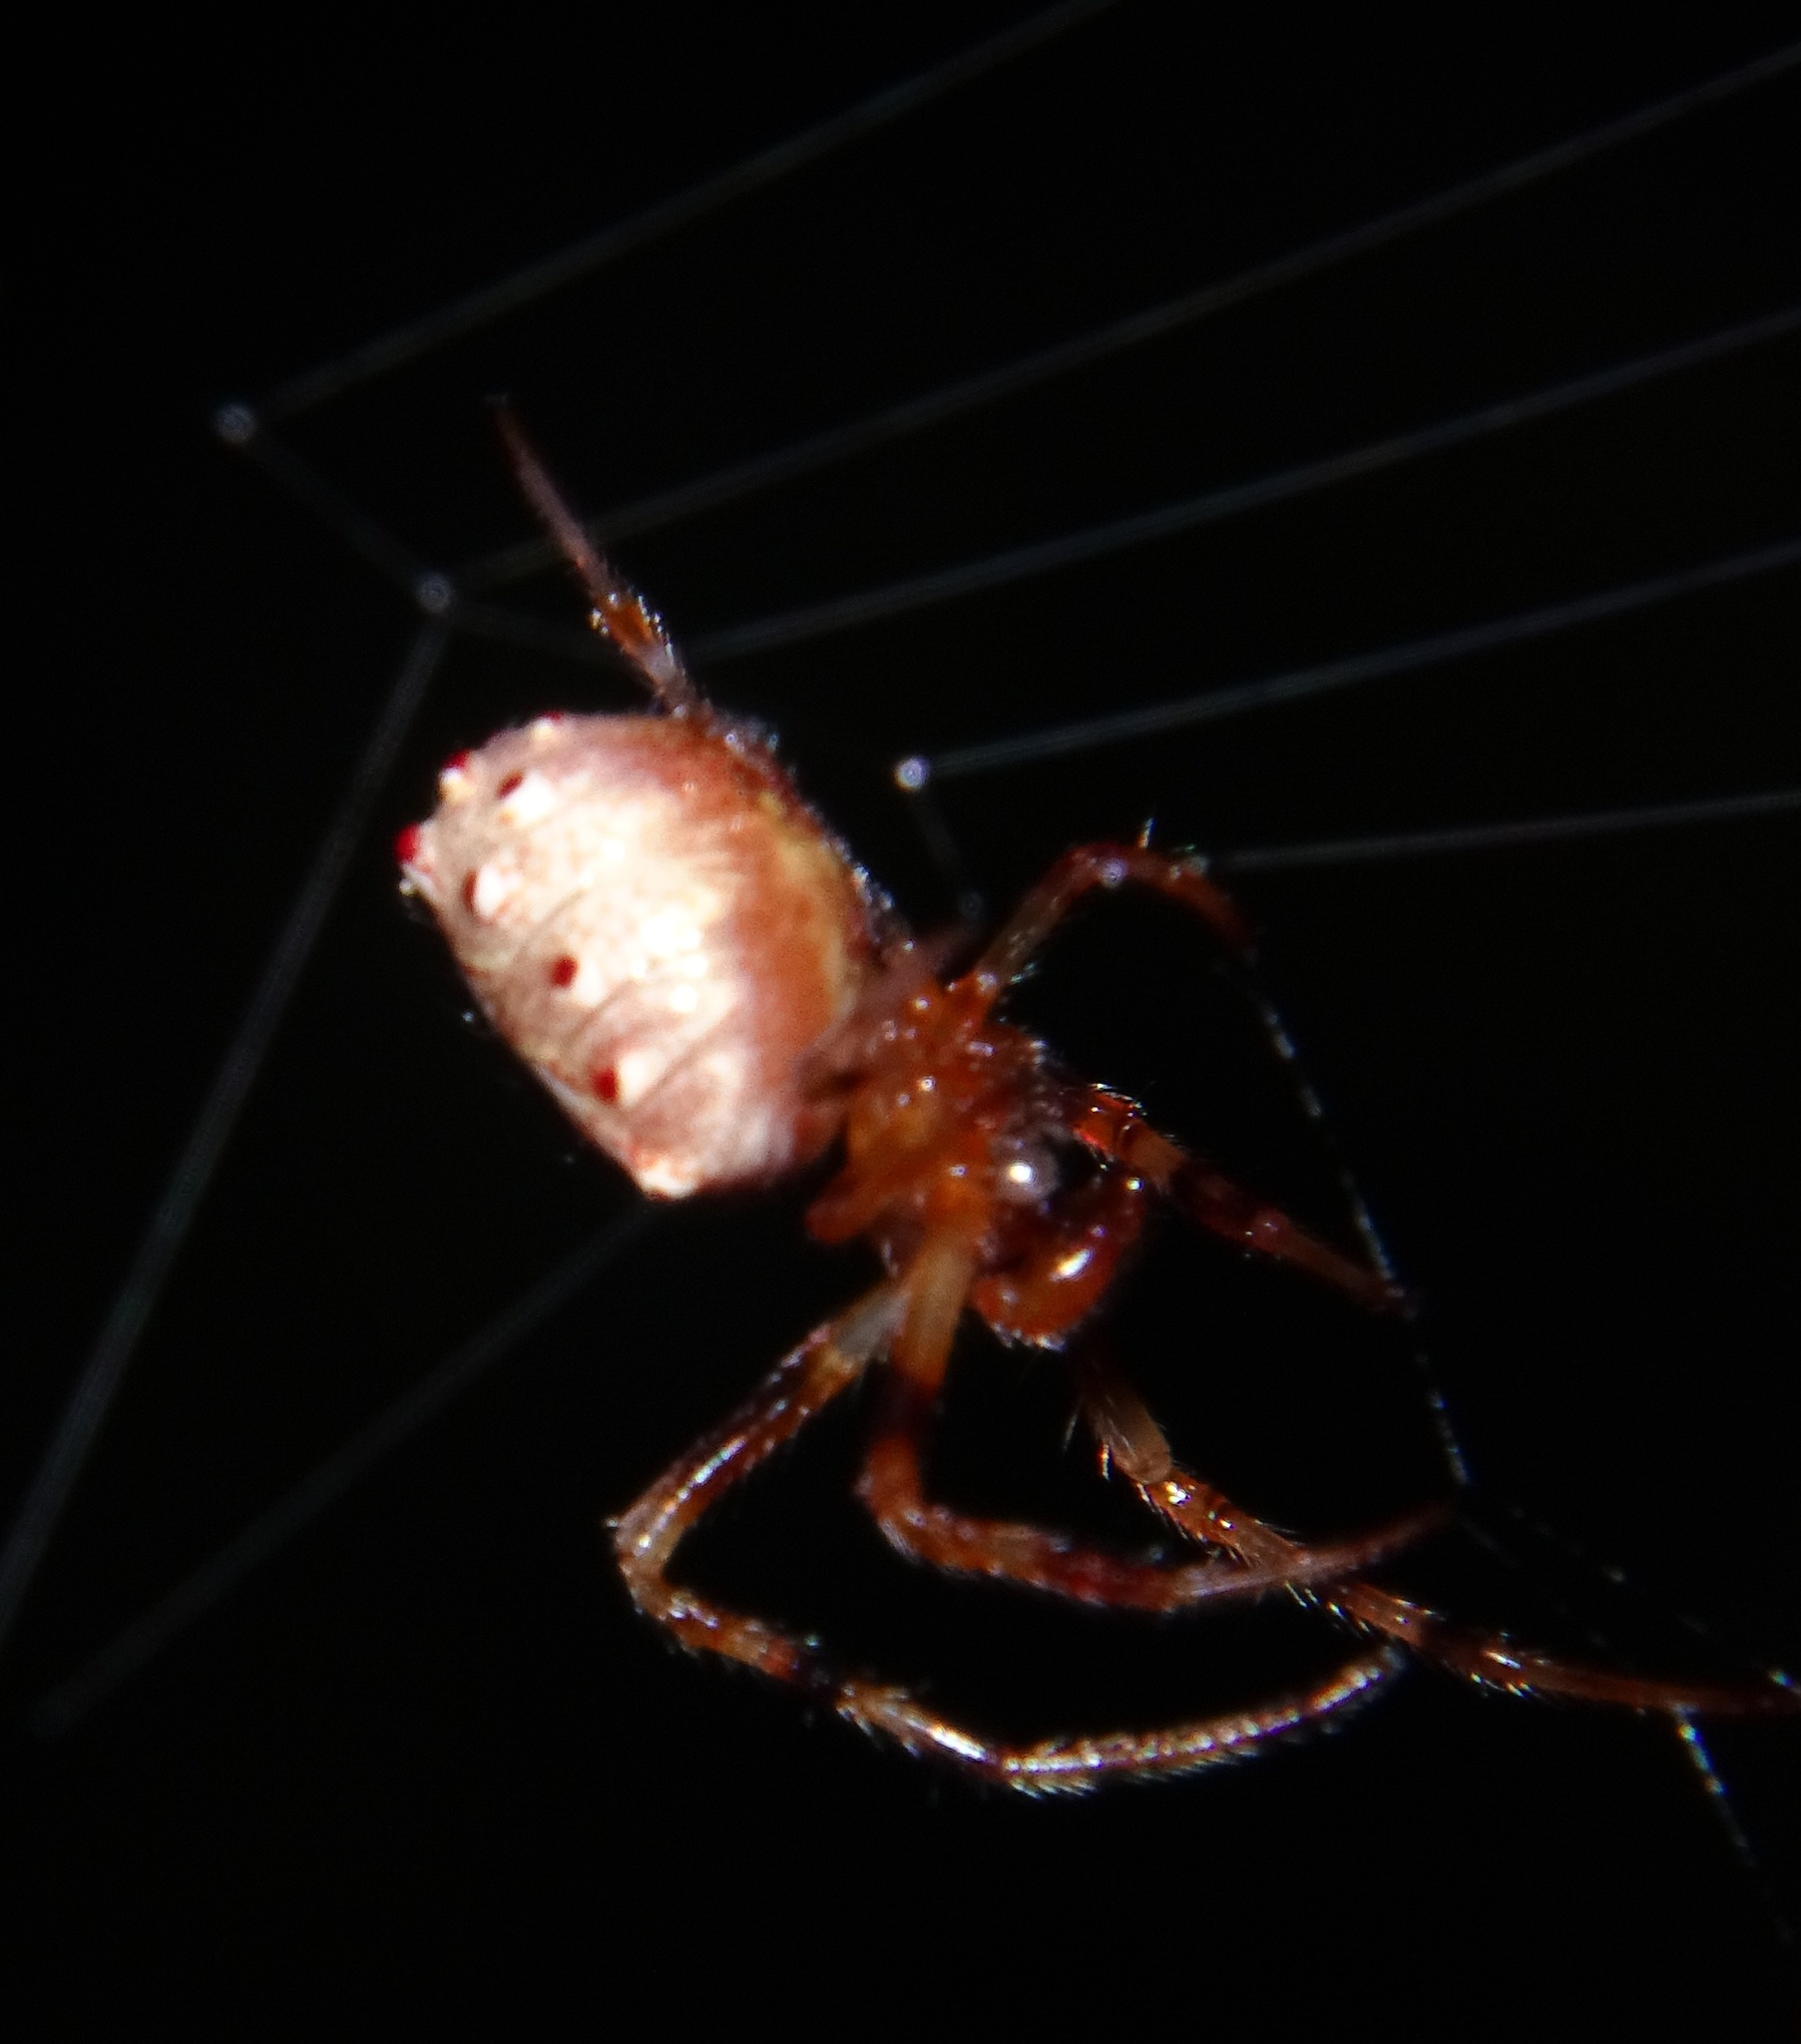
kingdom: Animalia
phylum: Arthropoda
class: Arachnida
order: Araneae
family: Araneidae
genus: Verrucosa
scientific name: Verrucosa arenata
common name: Orb weavers
